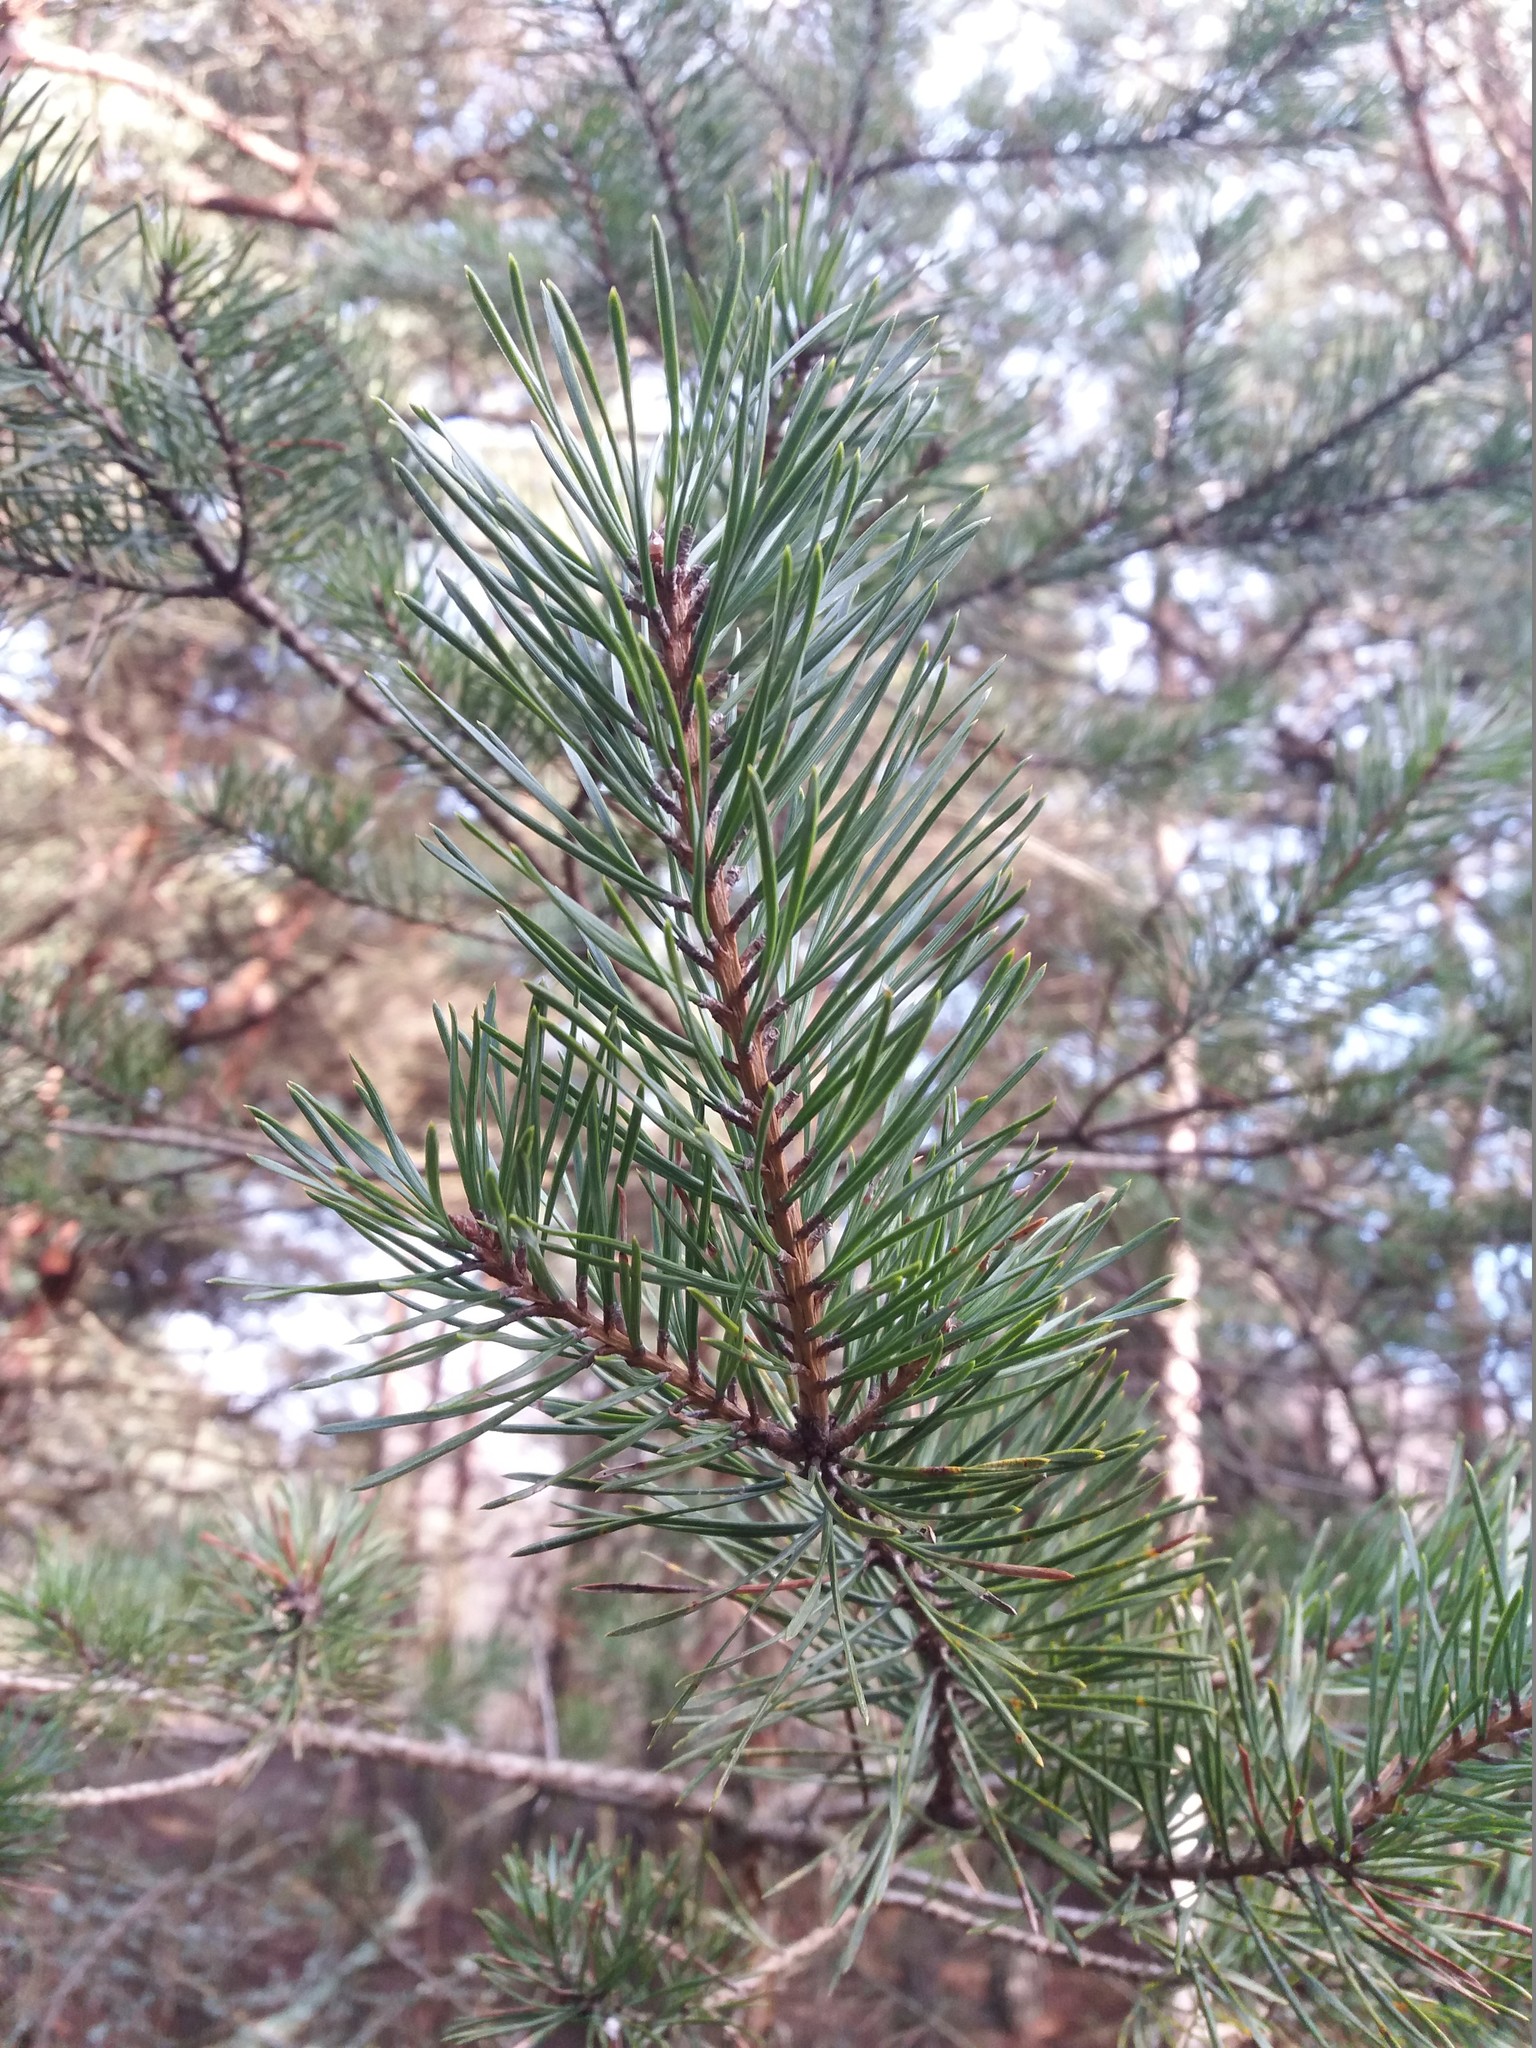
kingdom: Plantae
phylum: Tracheophyta
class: Pinopsida
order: Pinales
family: Pinaceae
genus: Pinus
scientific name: Pinus sylvestris
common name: Scots pine
